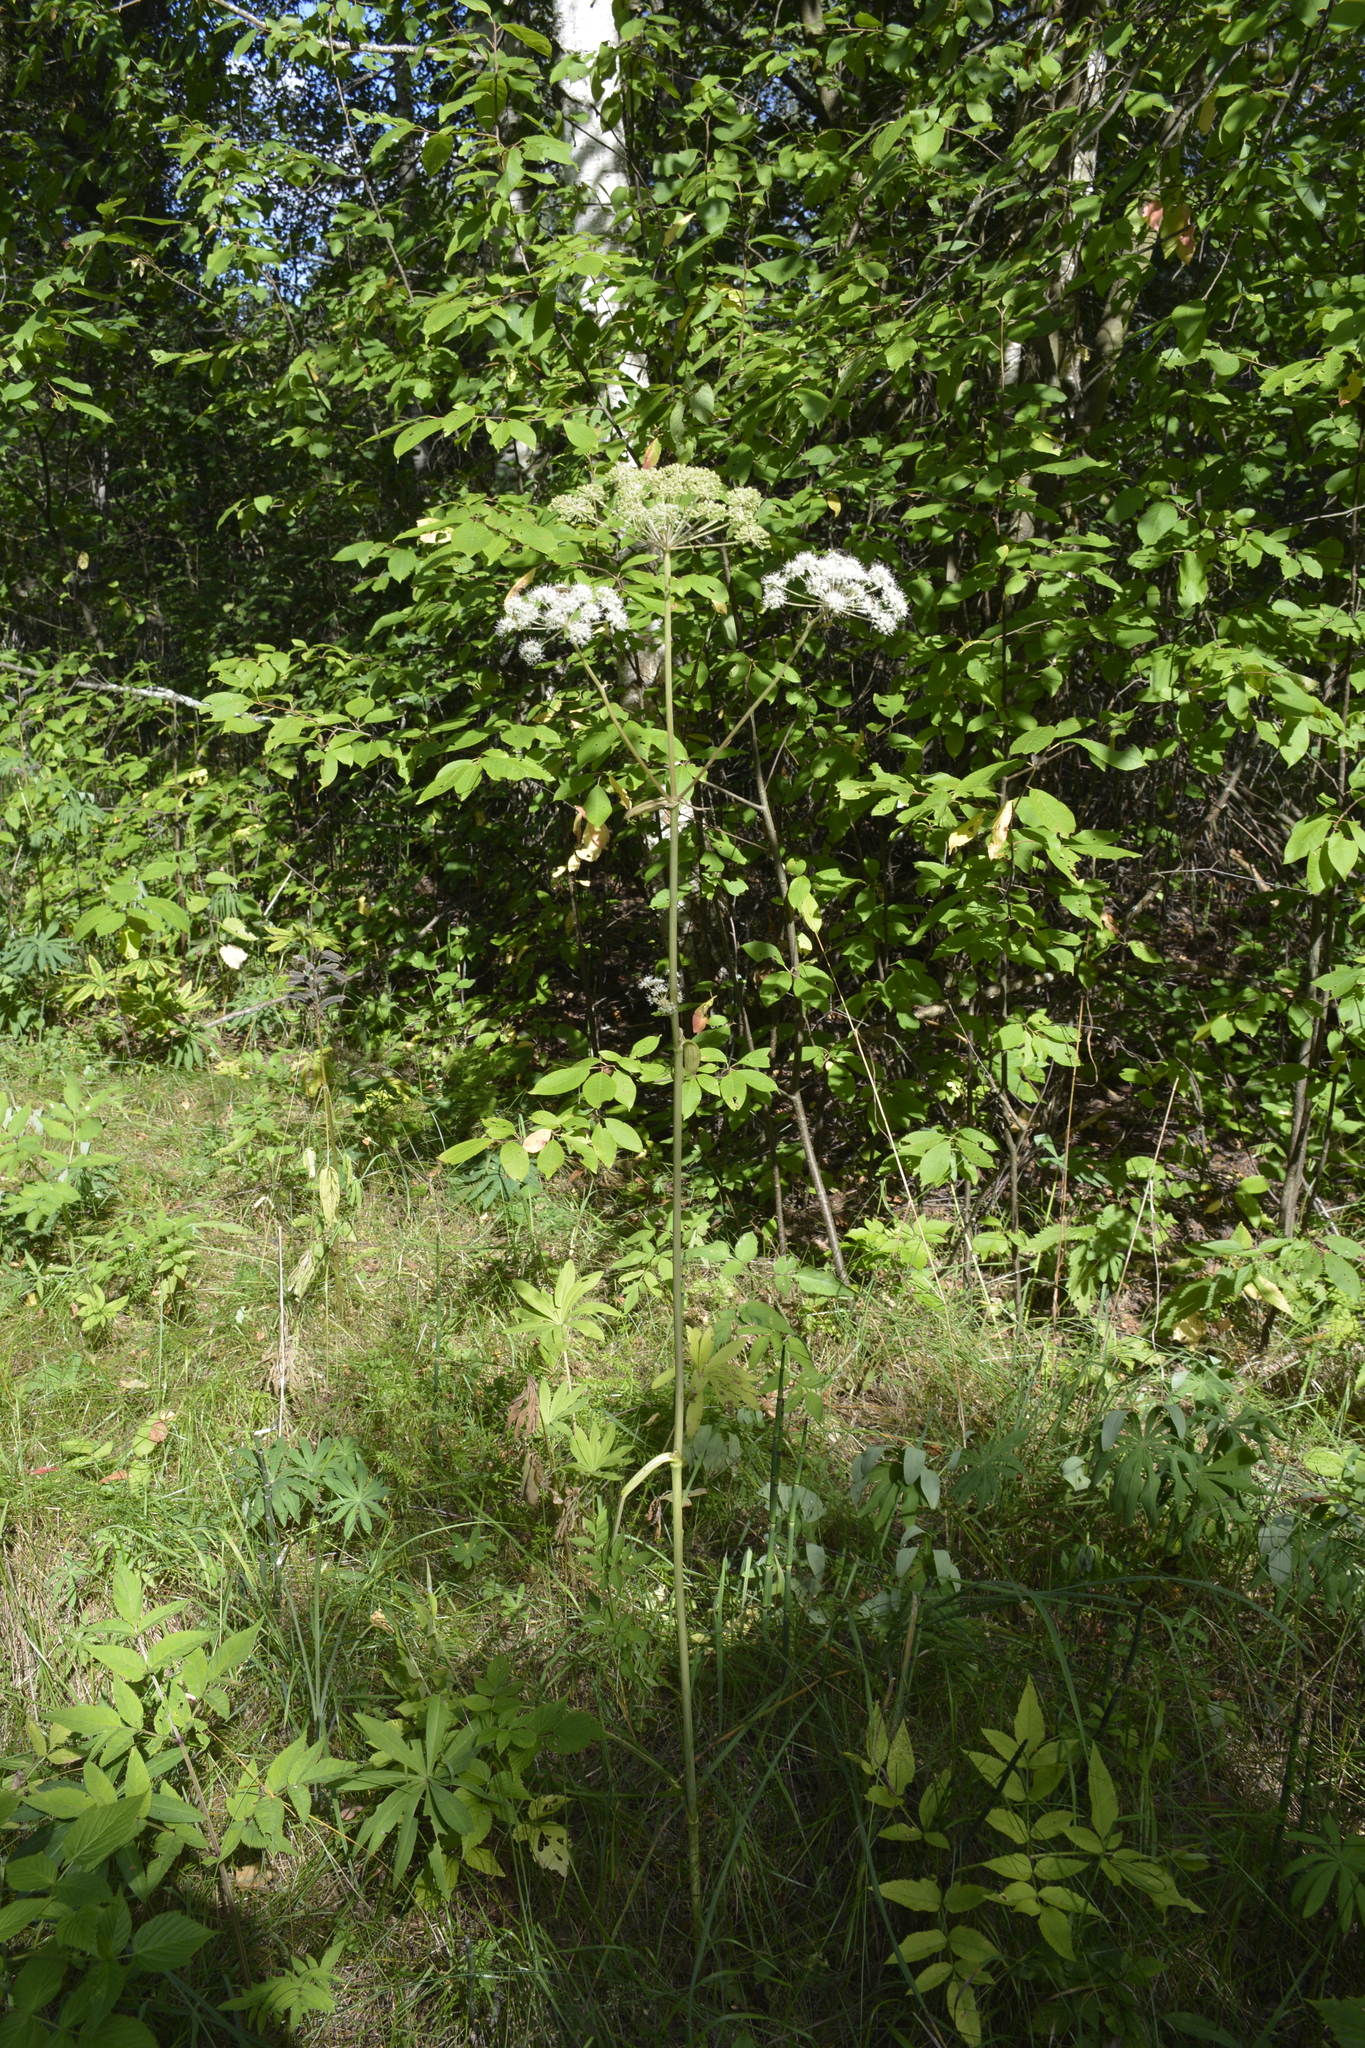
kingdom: Plantae
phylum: Tracheophyta
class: Magnoliopsida
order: Apiales
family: Apiaceae
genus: Angelica
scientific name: Angelica sylvestris
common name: Wild angelica
